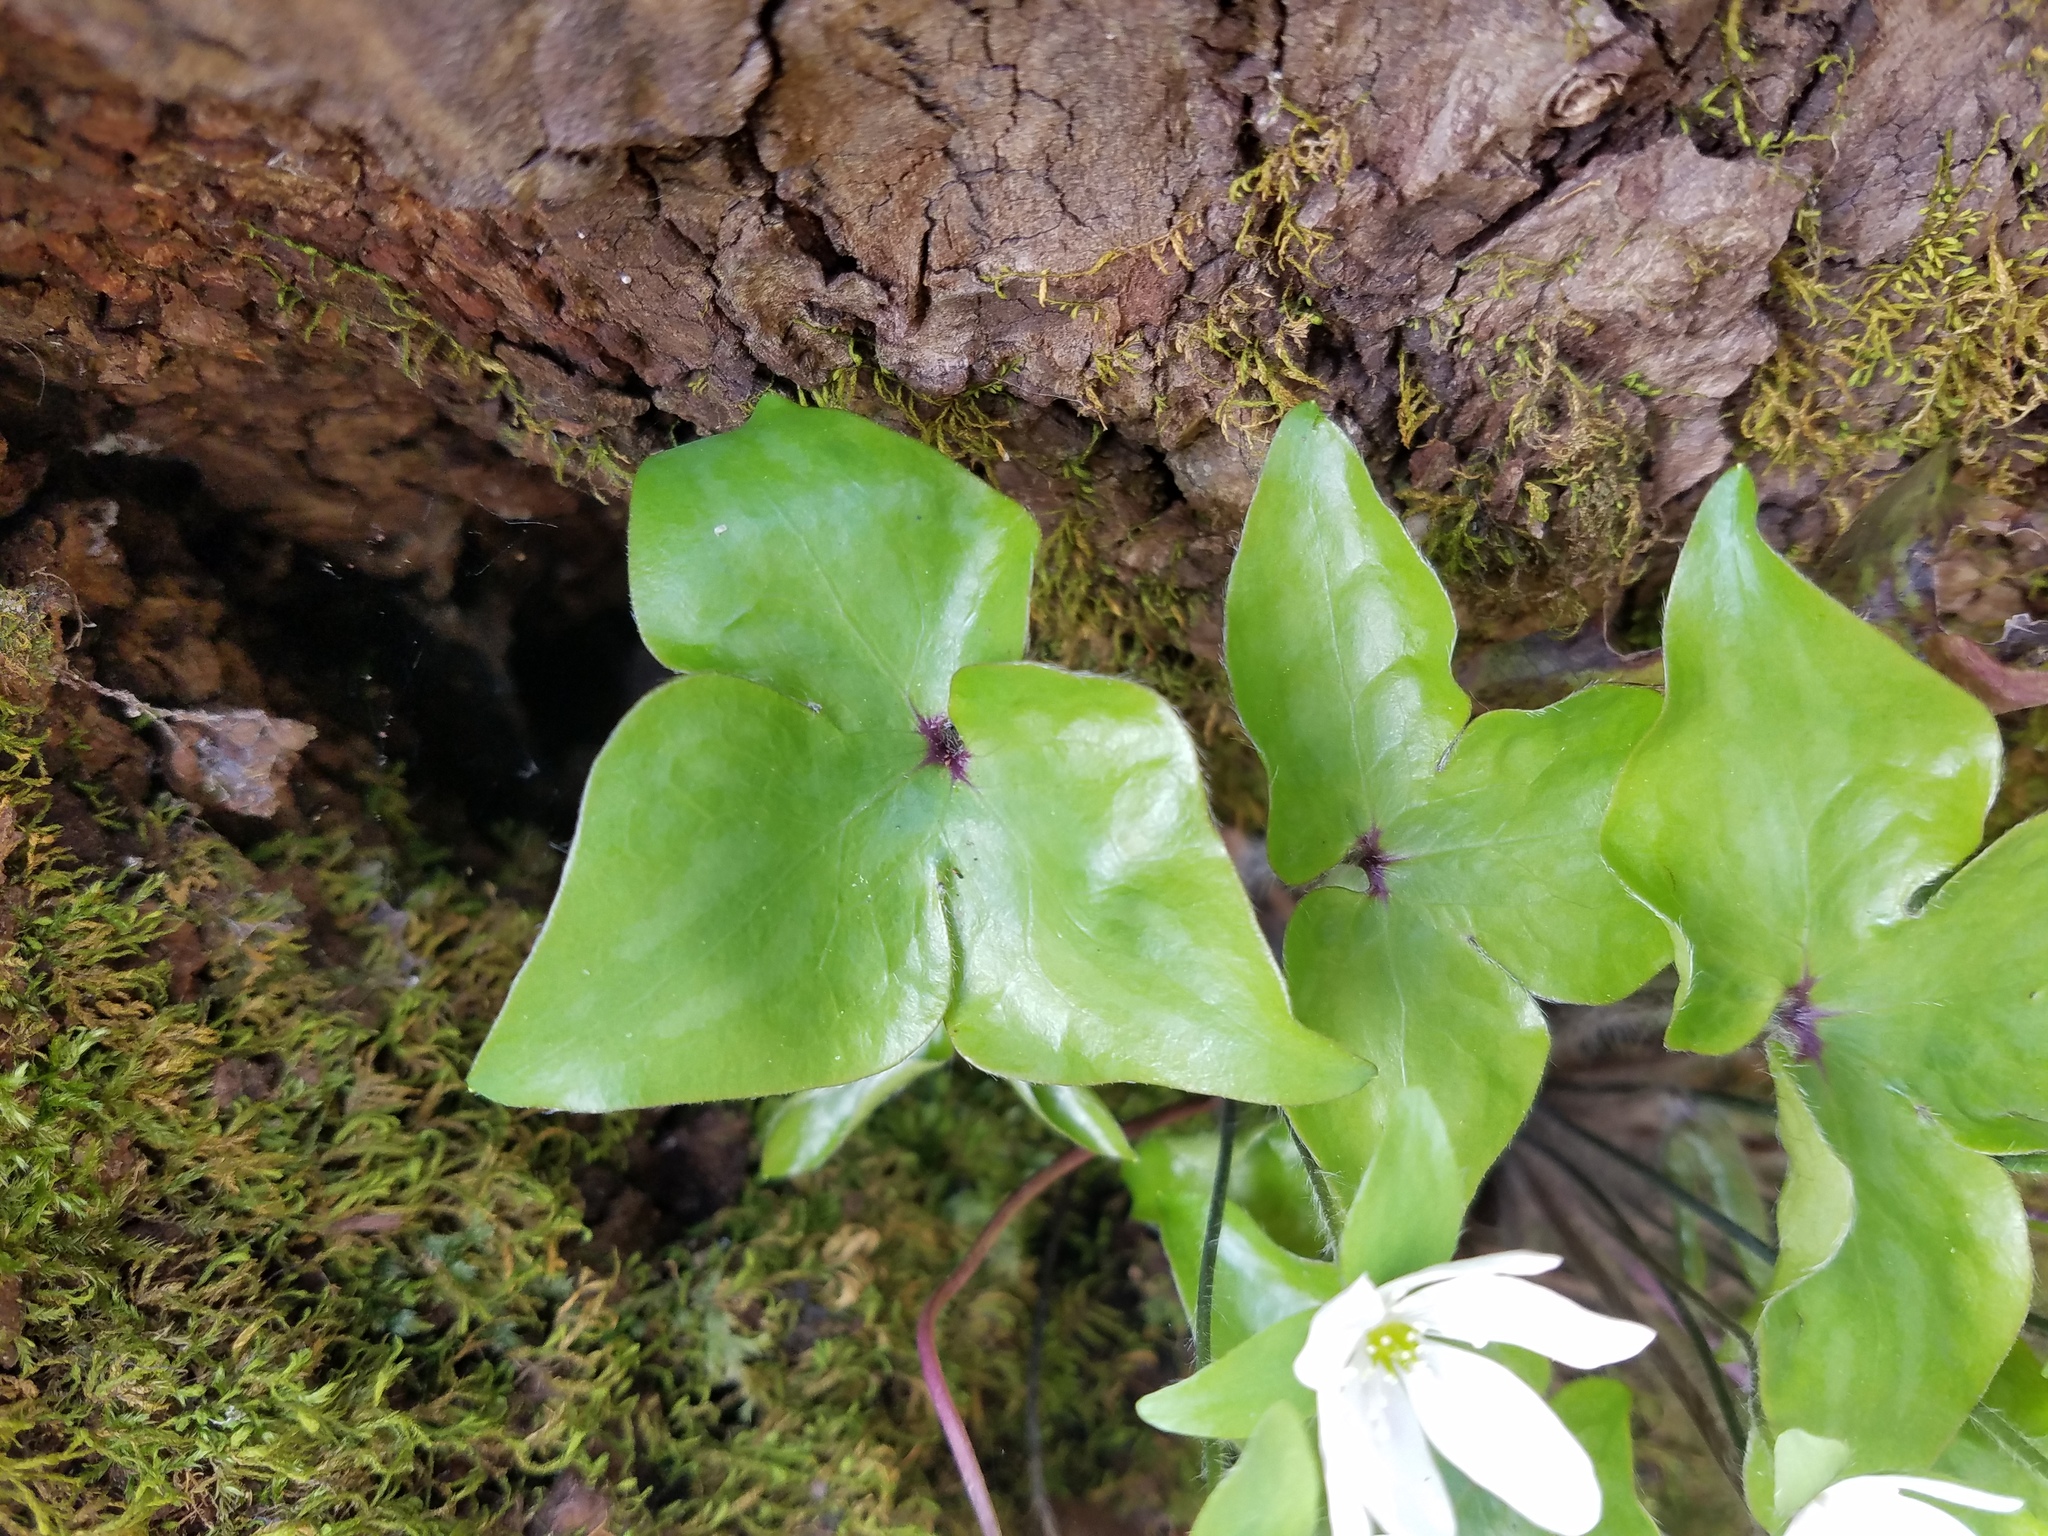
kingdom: Plantae
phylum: Tracheophyta
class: Magnoliopsida
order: Ranunculales
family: Ranunculaceae
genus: Hepatica
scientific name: Hepatica acutiloba
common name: Sharp-lobed hepatica
